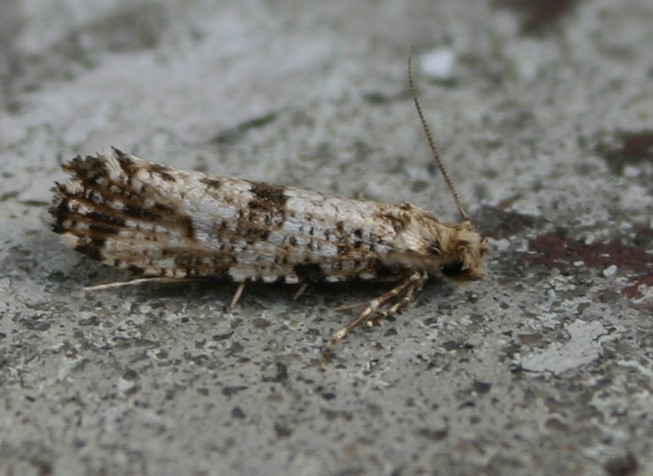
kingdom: Animalia
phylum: Arthropoda
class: Insecta
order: Lepidoptera
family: Tineidae
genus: Morophaga
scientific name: Morophaga choragella
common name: Large clothes
